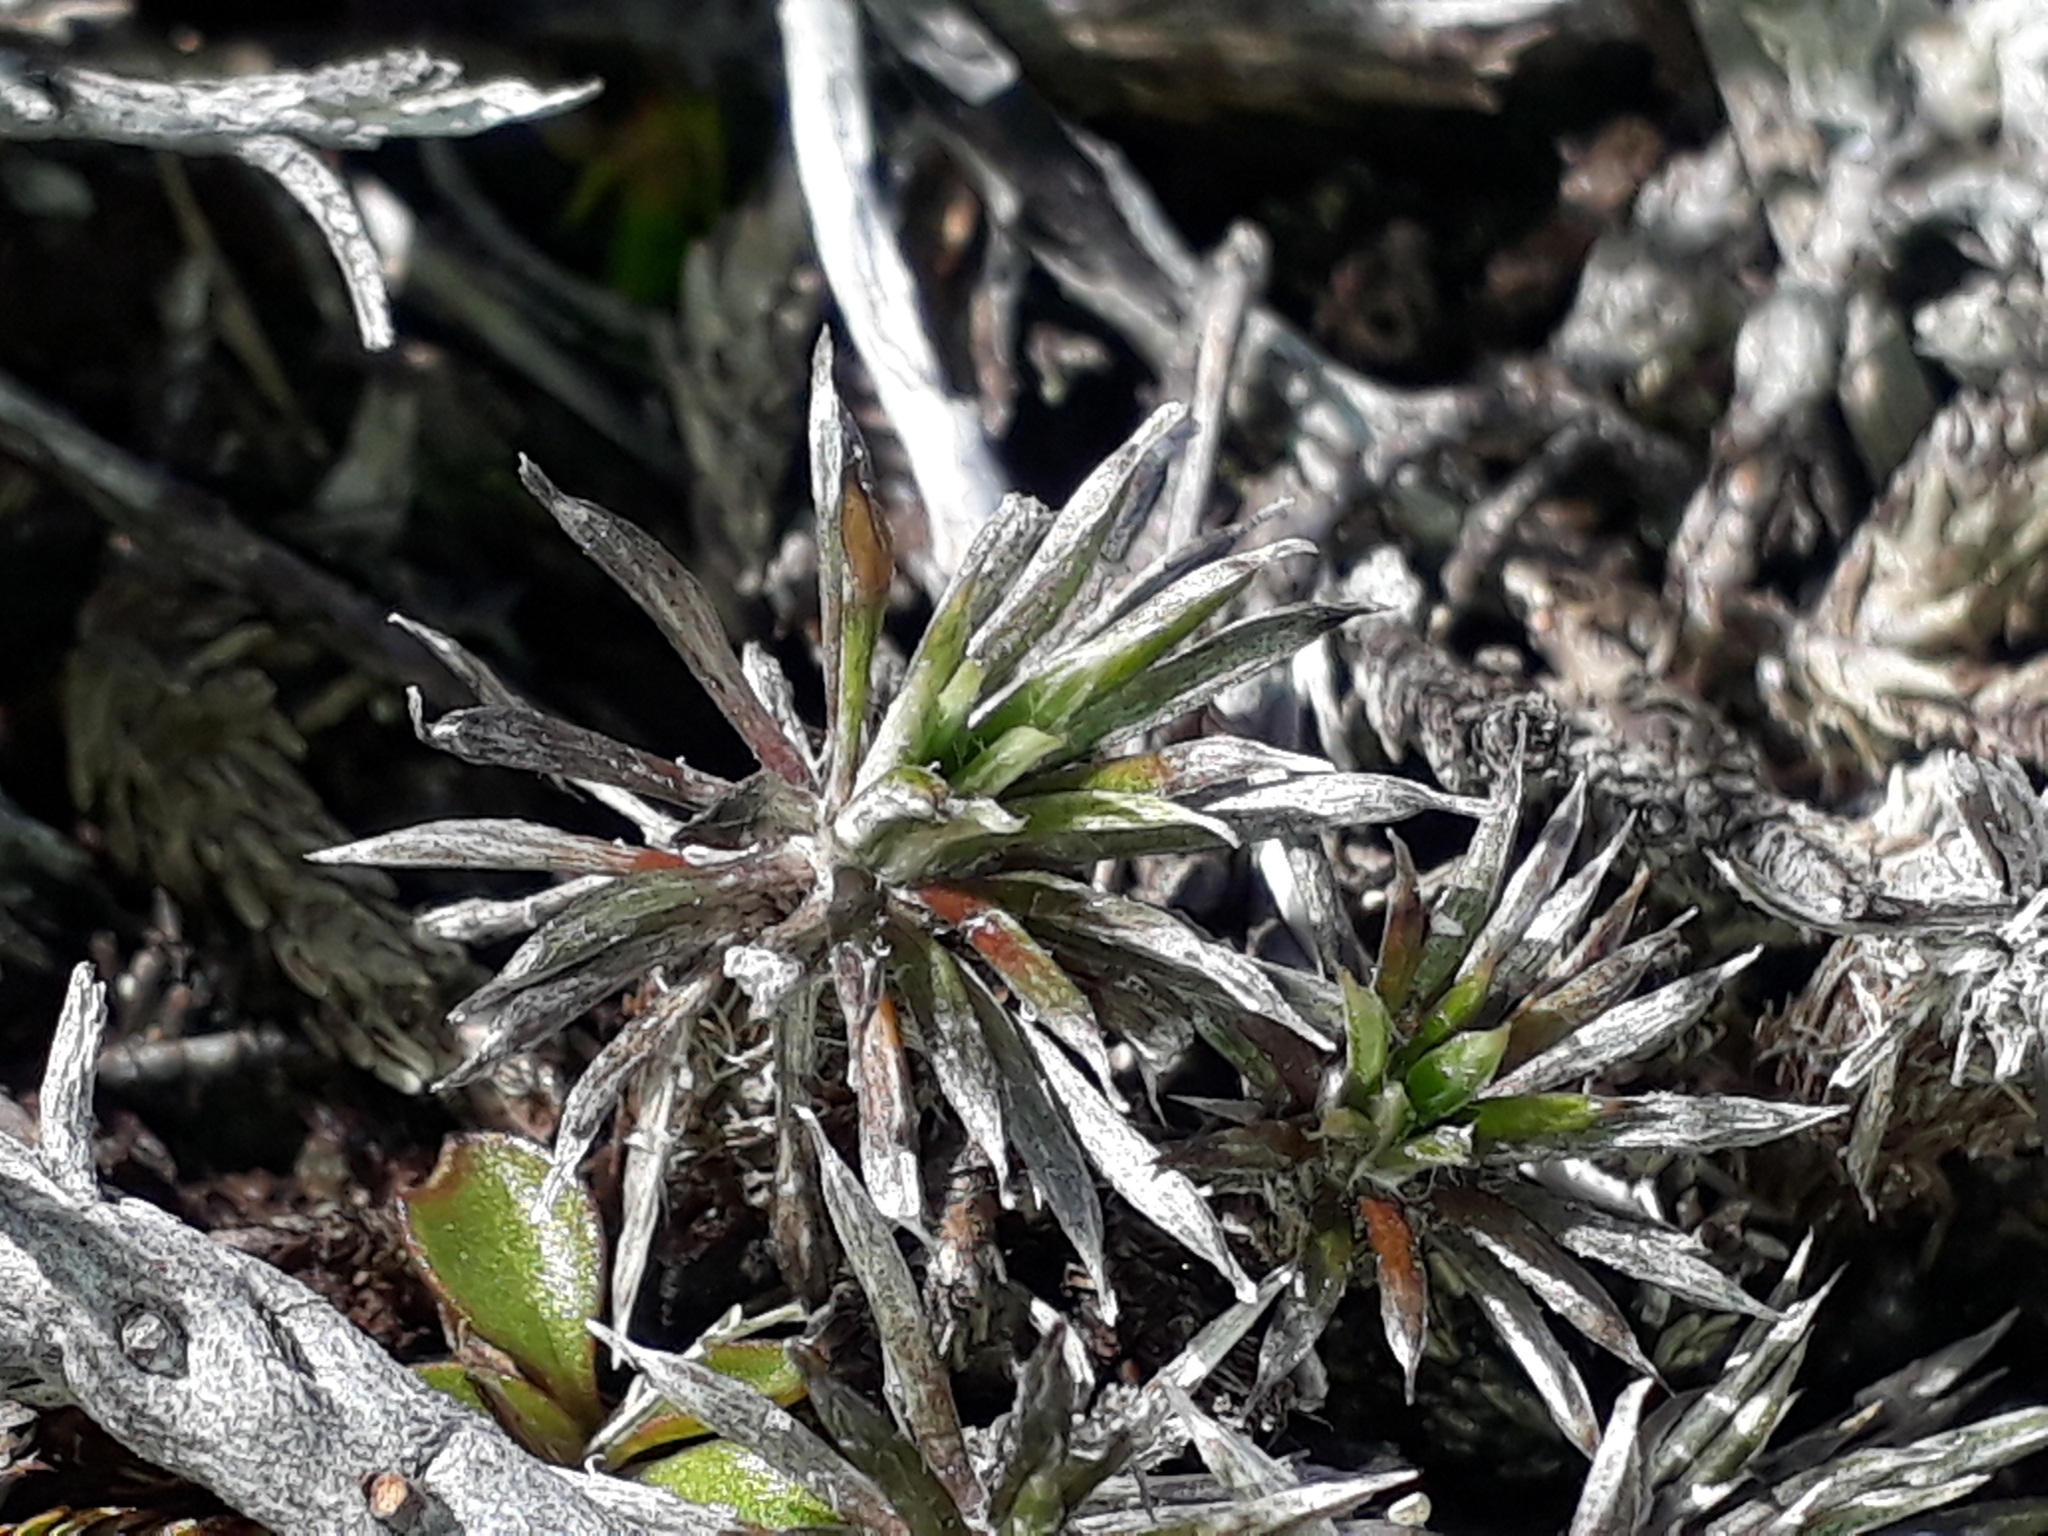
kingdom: Plantae
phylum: Tracheophyta
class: Magnoliopsida
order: Asterales
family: Asteraceae
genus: Celmisia
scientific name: Celmisia laricifolia
